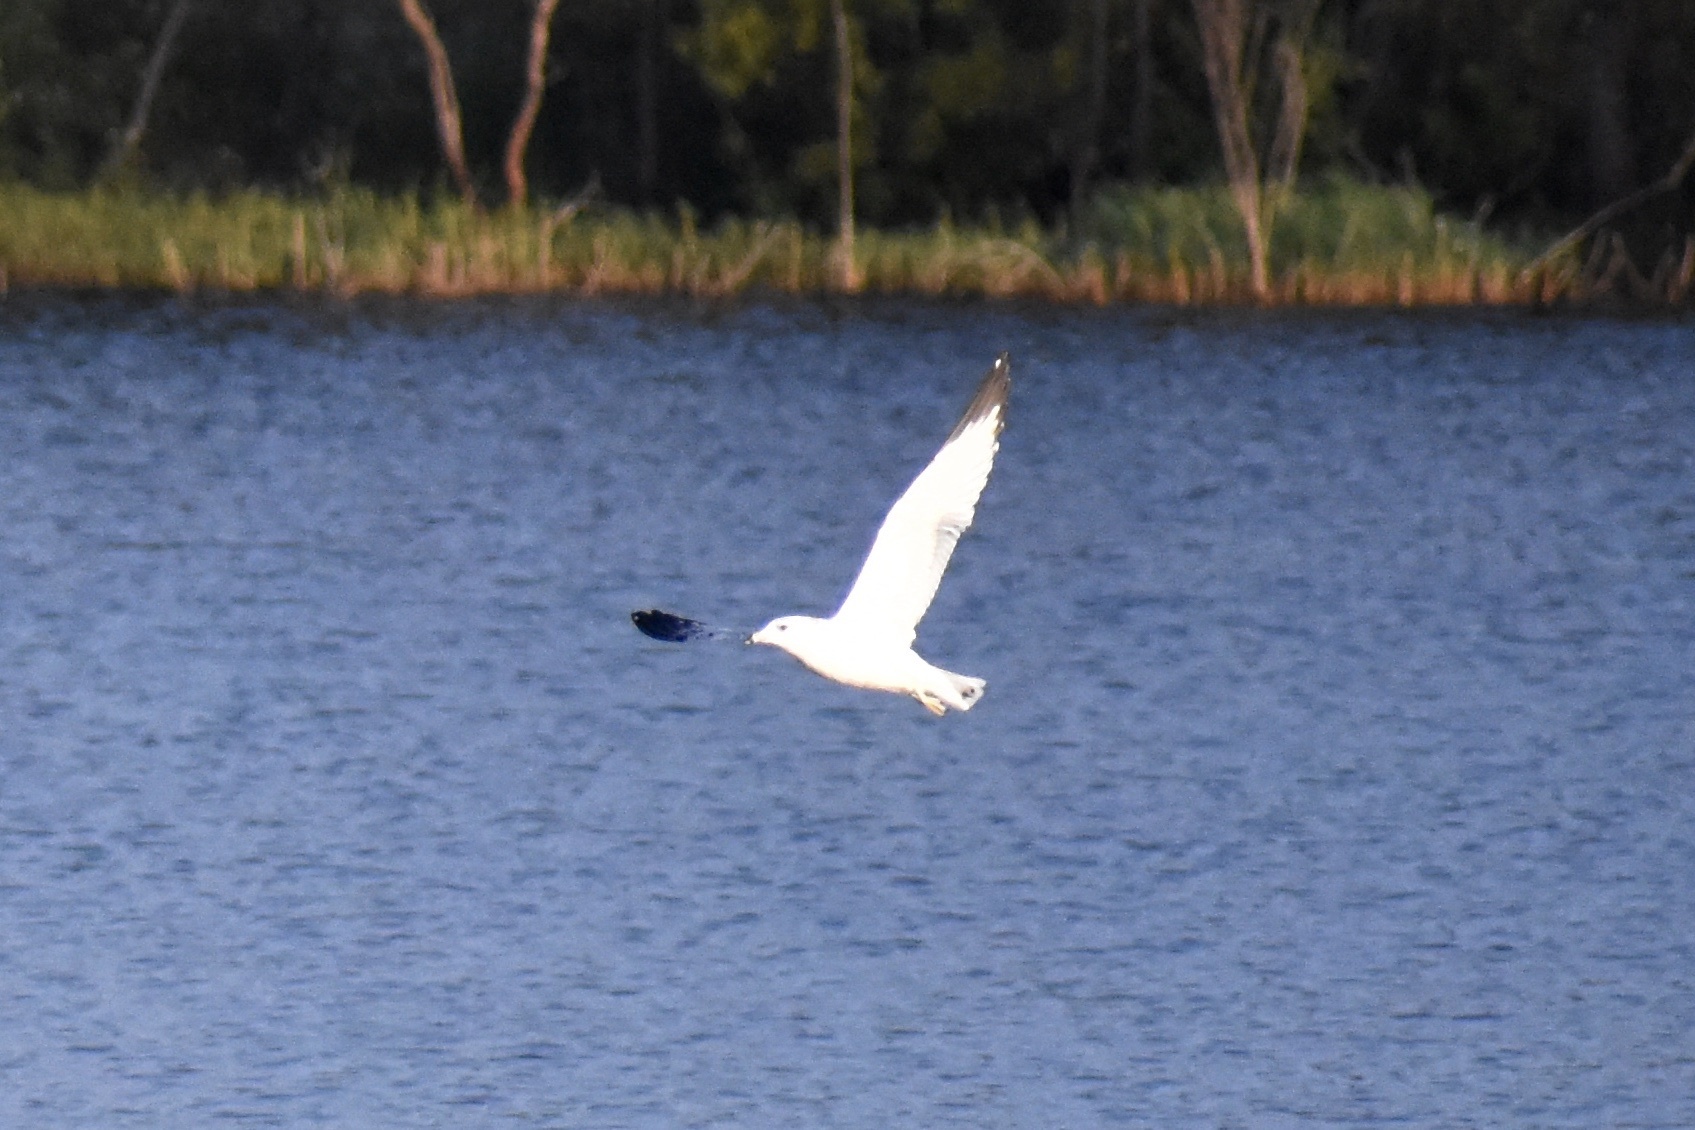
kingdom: Animalia
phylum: Chordata
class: Aves
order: Charadriiformes
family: Laridae
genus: Larus
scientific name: Larus delawarensis
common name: Ring-billed gull
